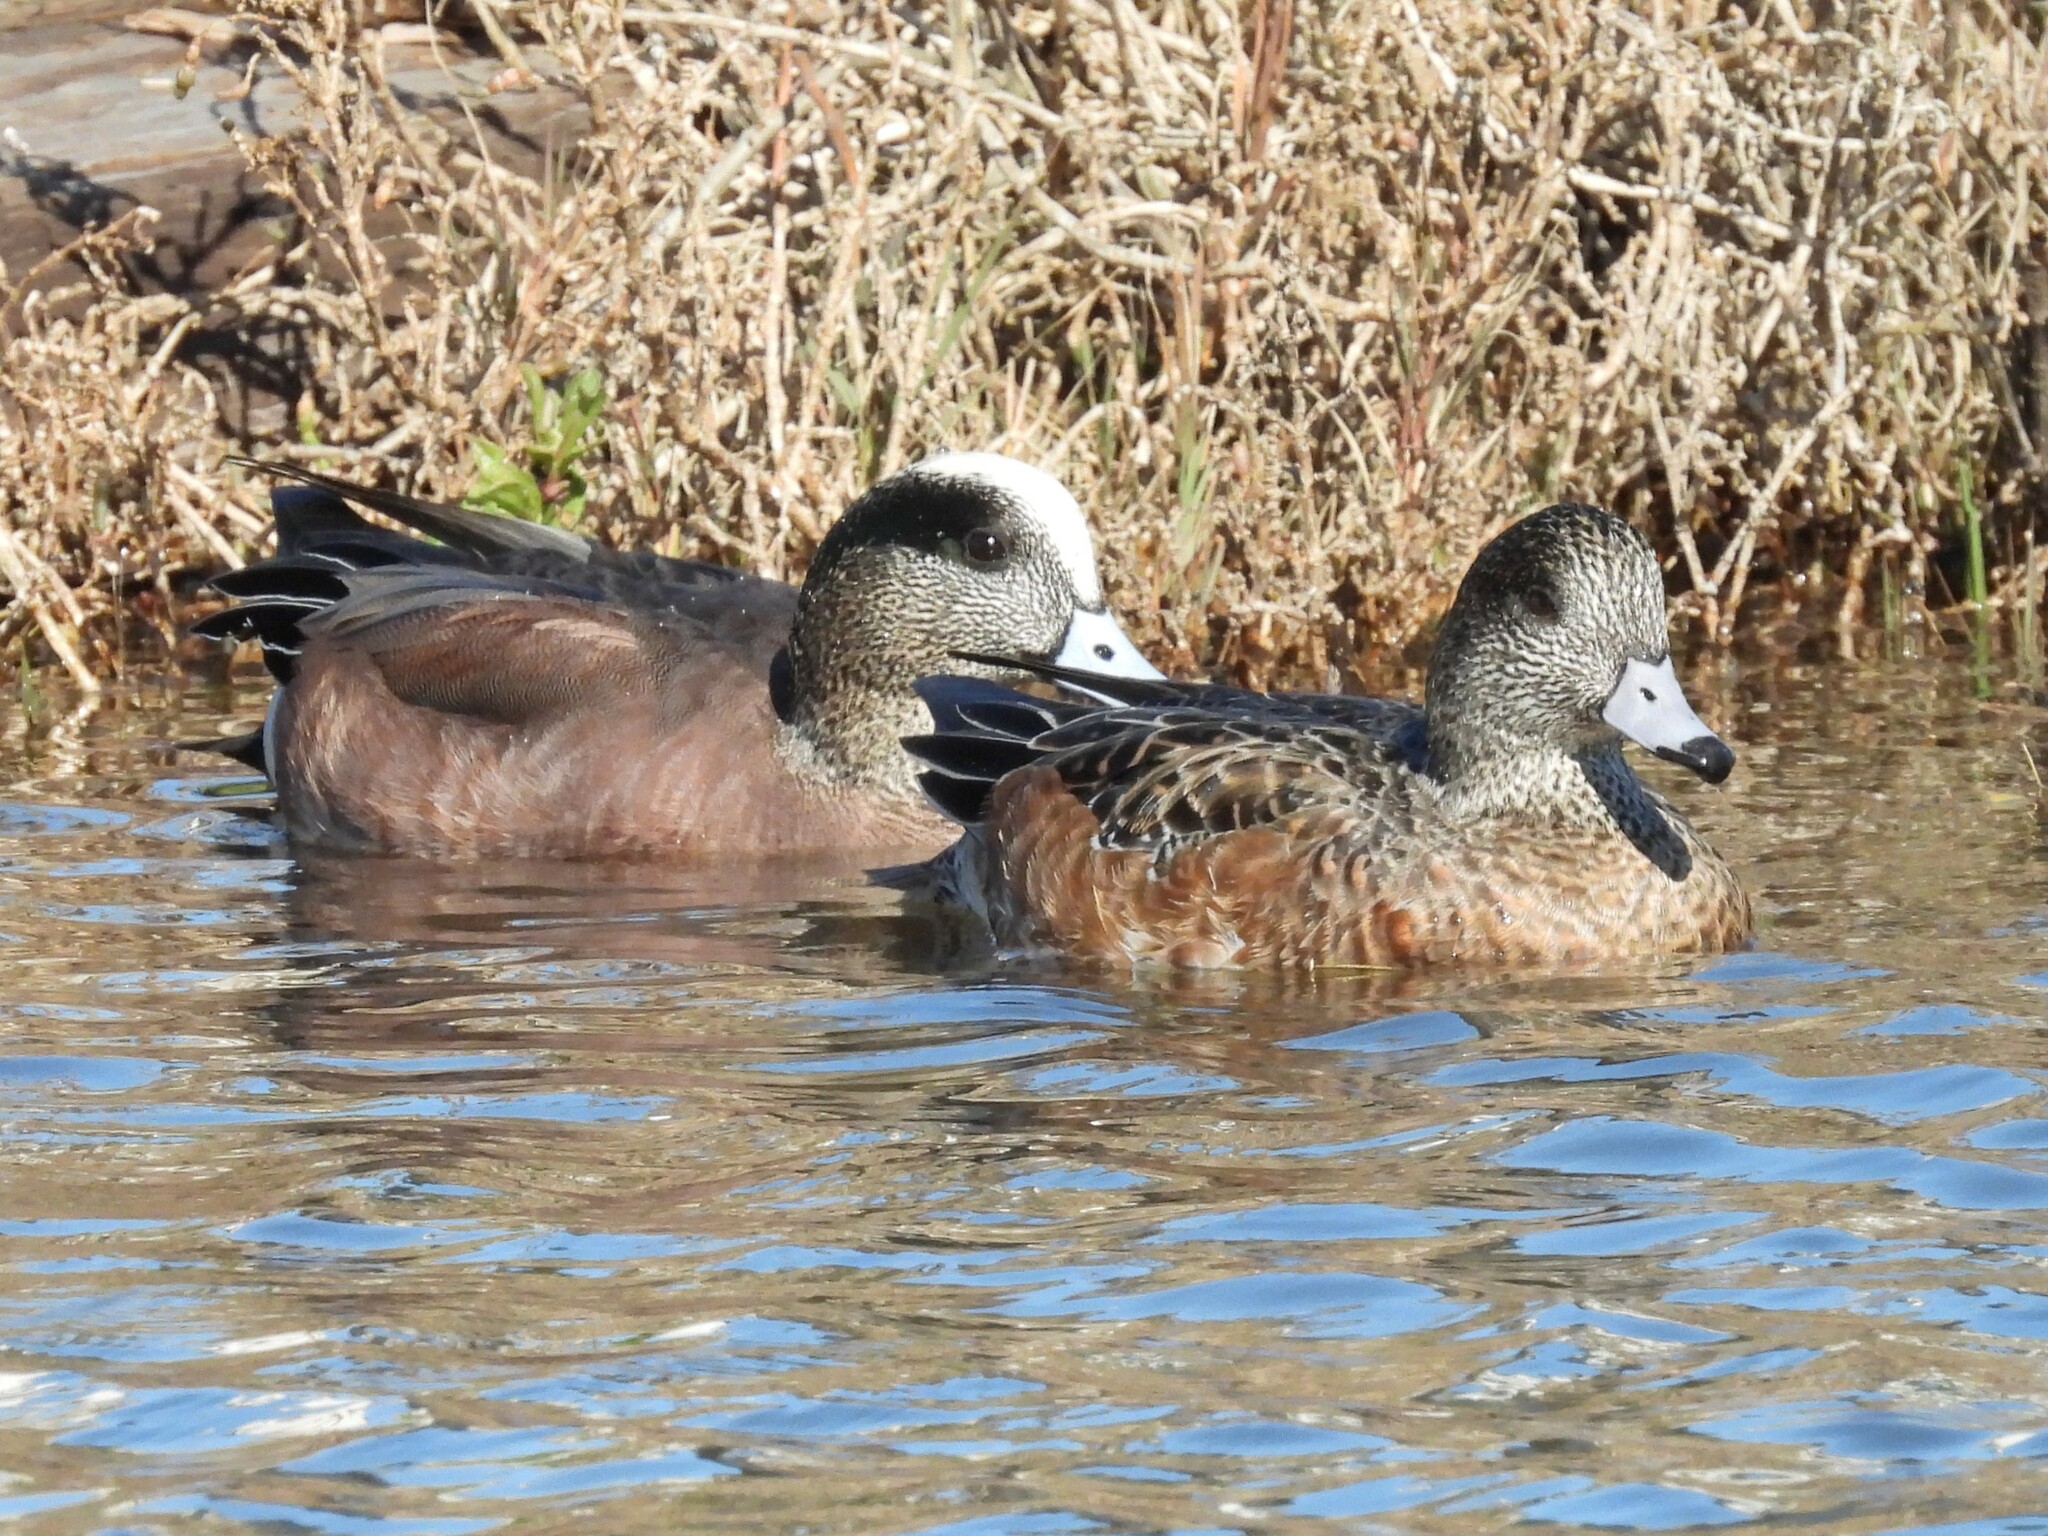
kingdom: Animalia
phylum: Chordata
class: Aves
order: Anseriformes
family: Anatidae
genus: Mareca
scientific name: Mareca americana
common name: American wigeon
